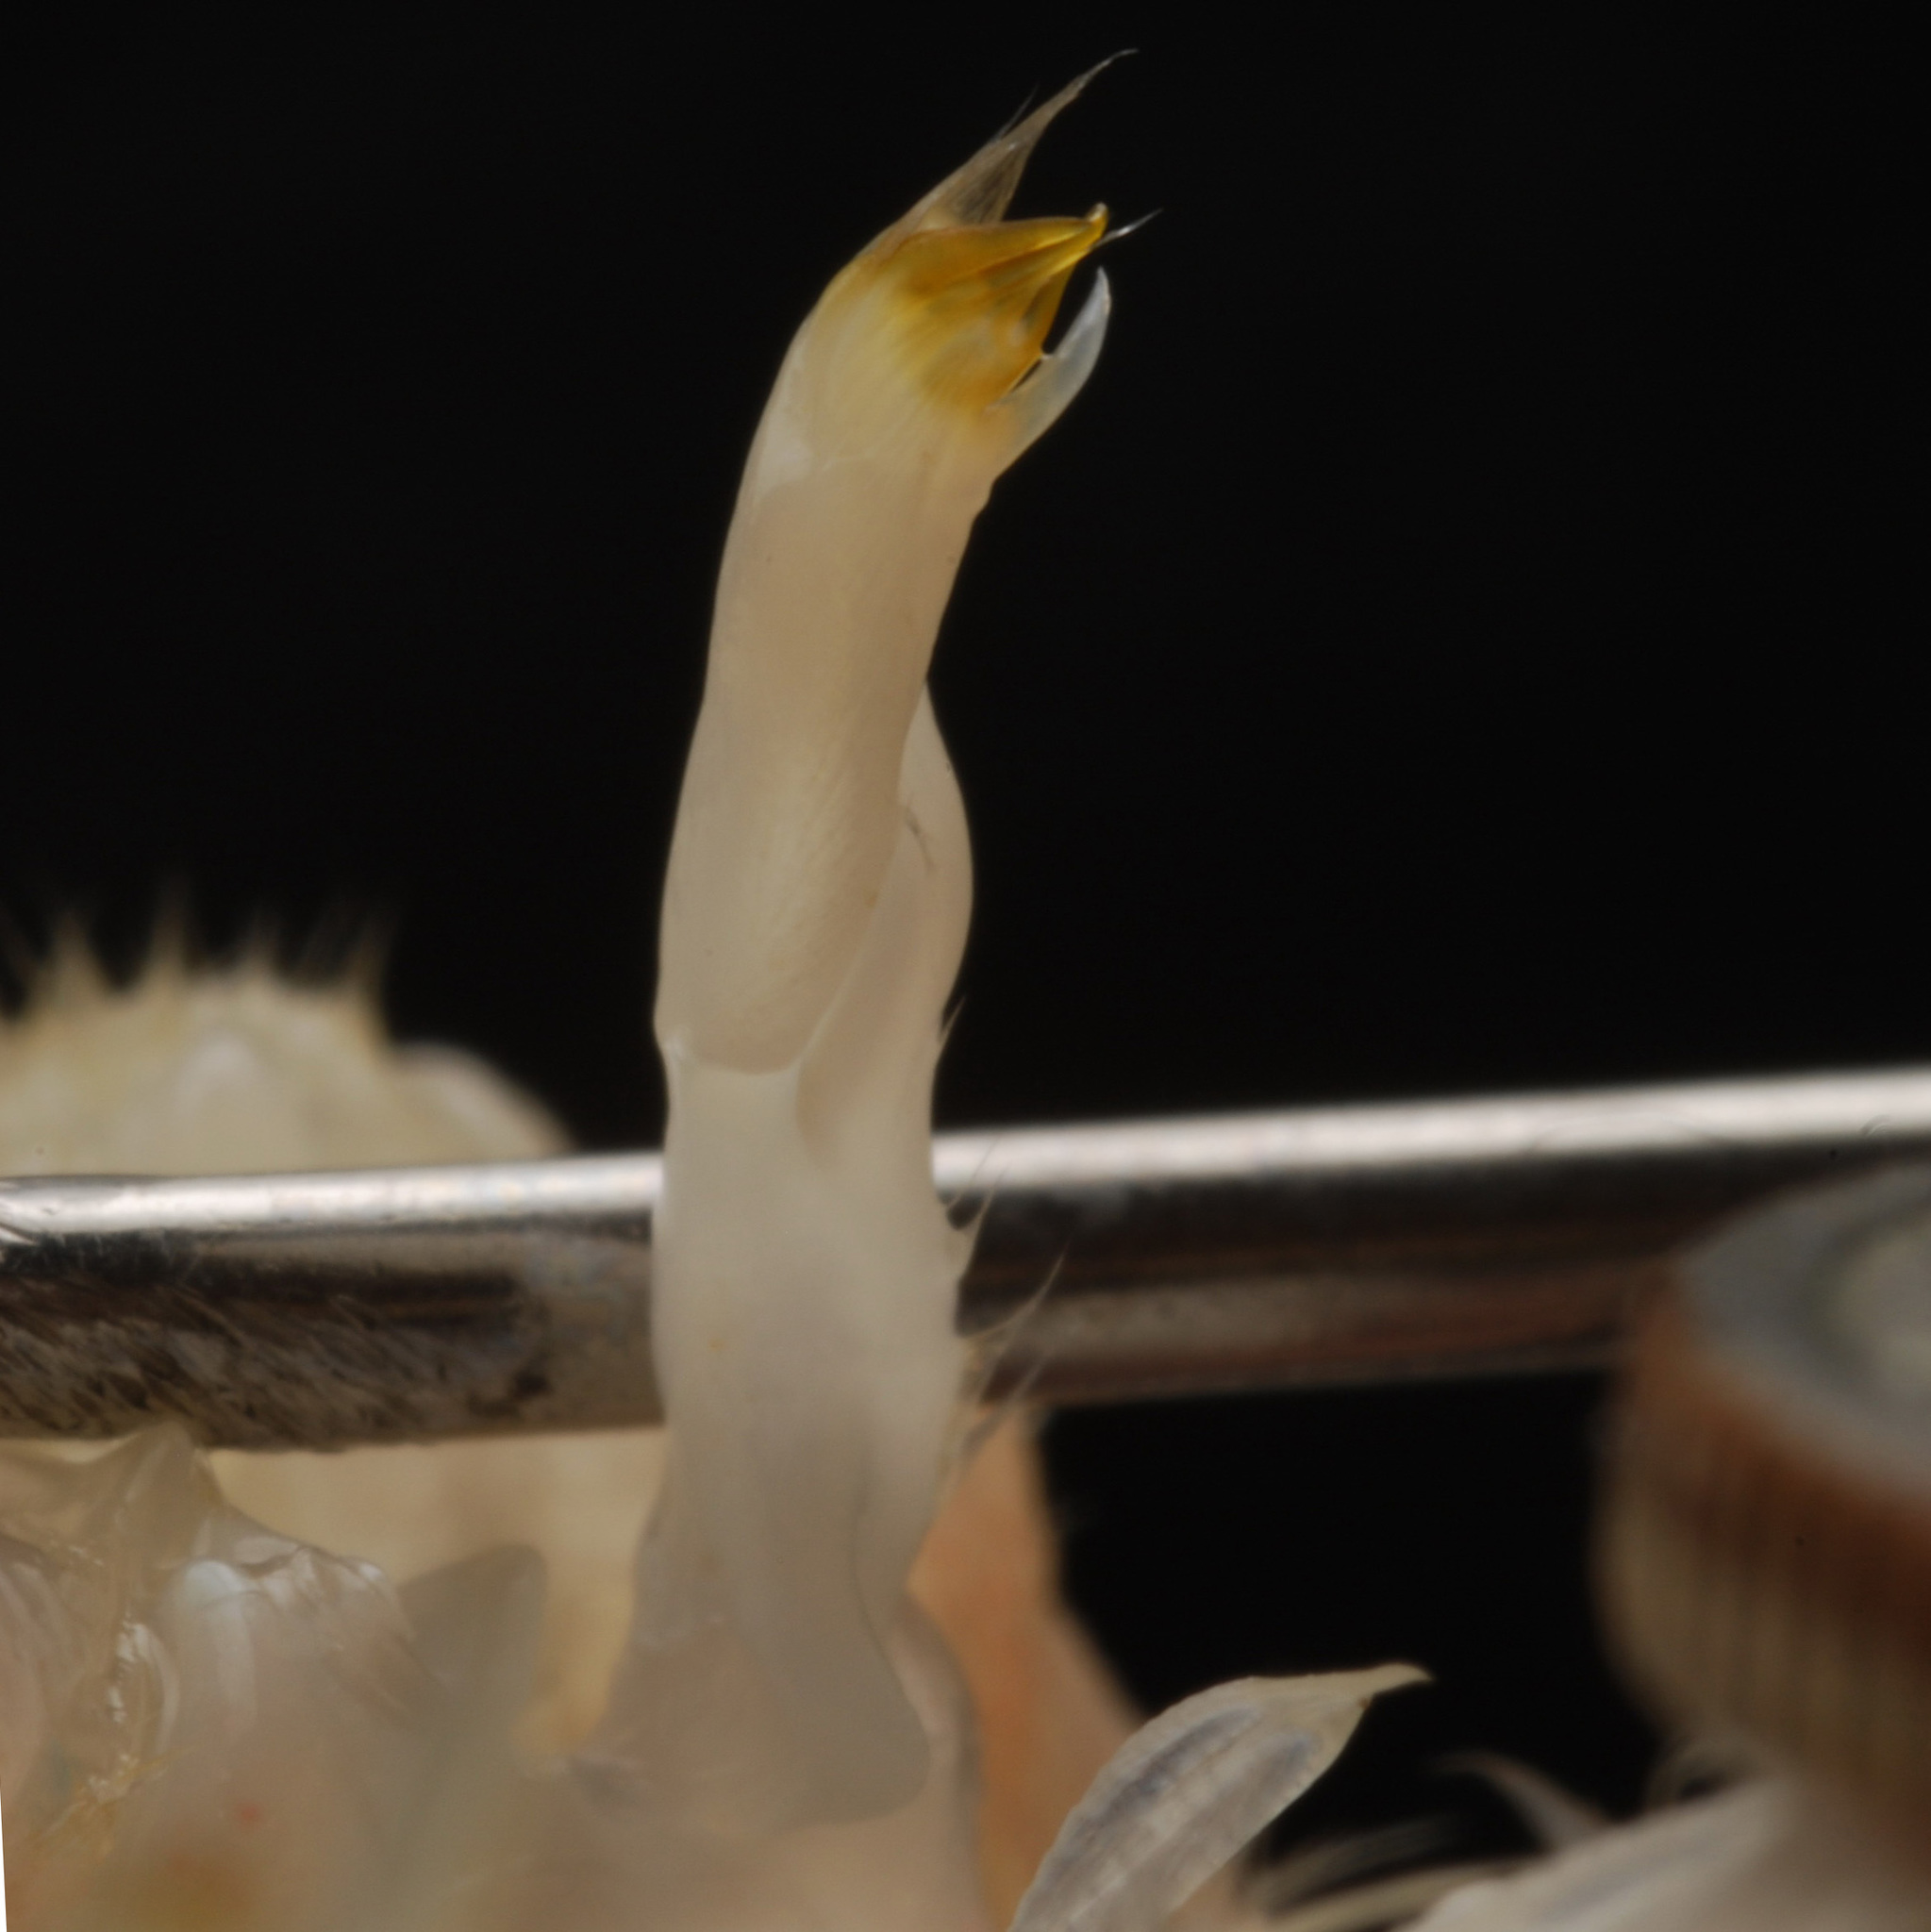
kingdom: Animalia
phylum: Arthropoda
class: Malacostraca
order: Decapoda
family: Cambaridae
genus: Procambarus
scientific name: Procambarus acutus
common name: White river crayfish
